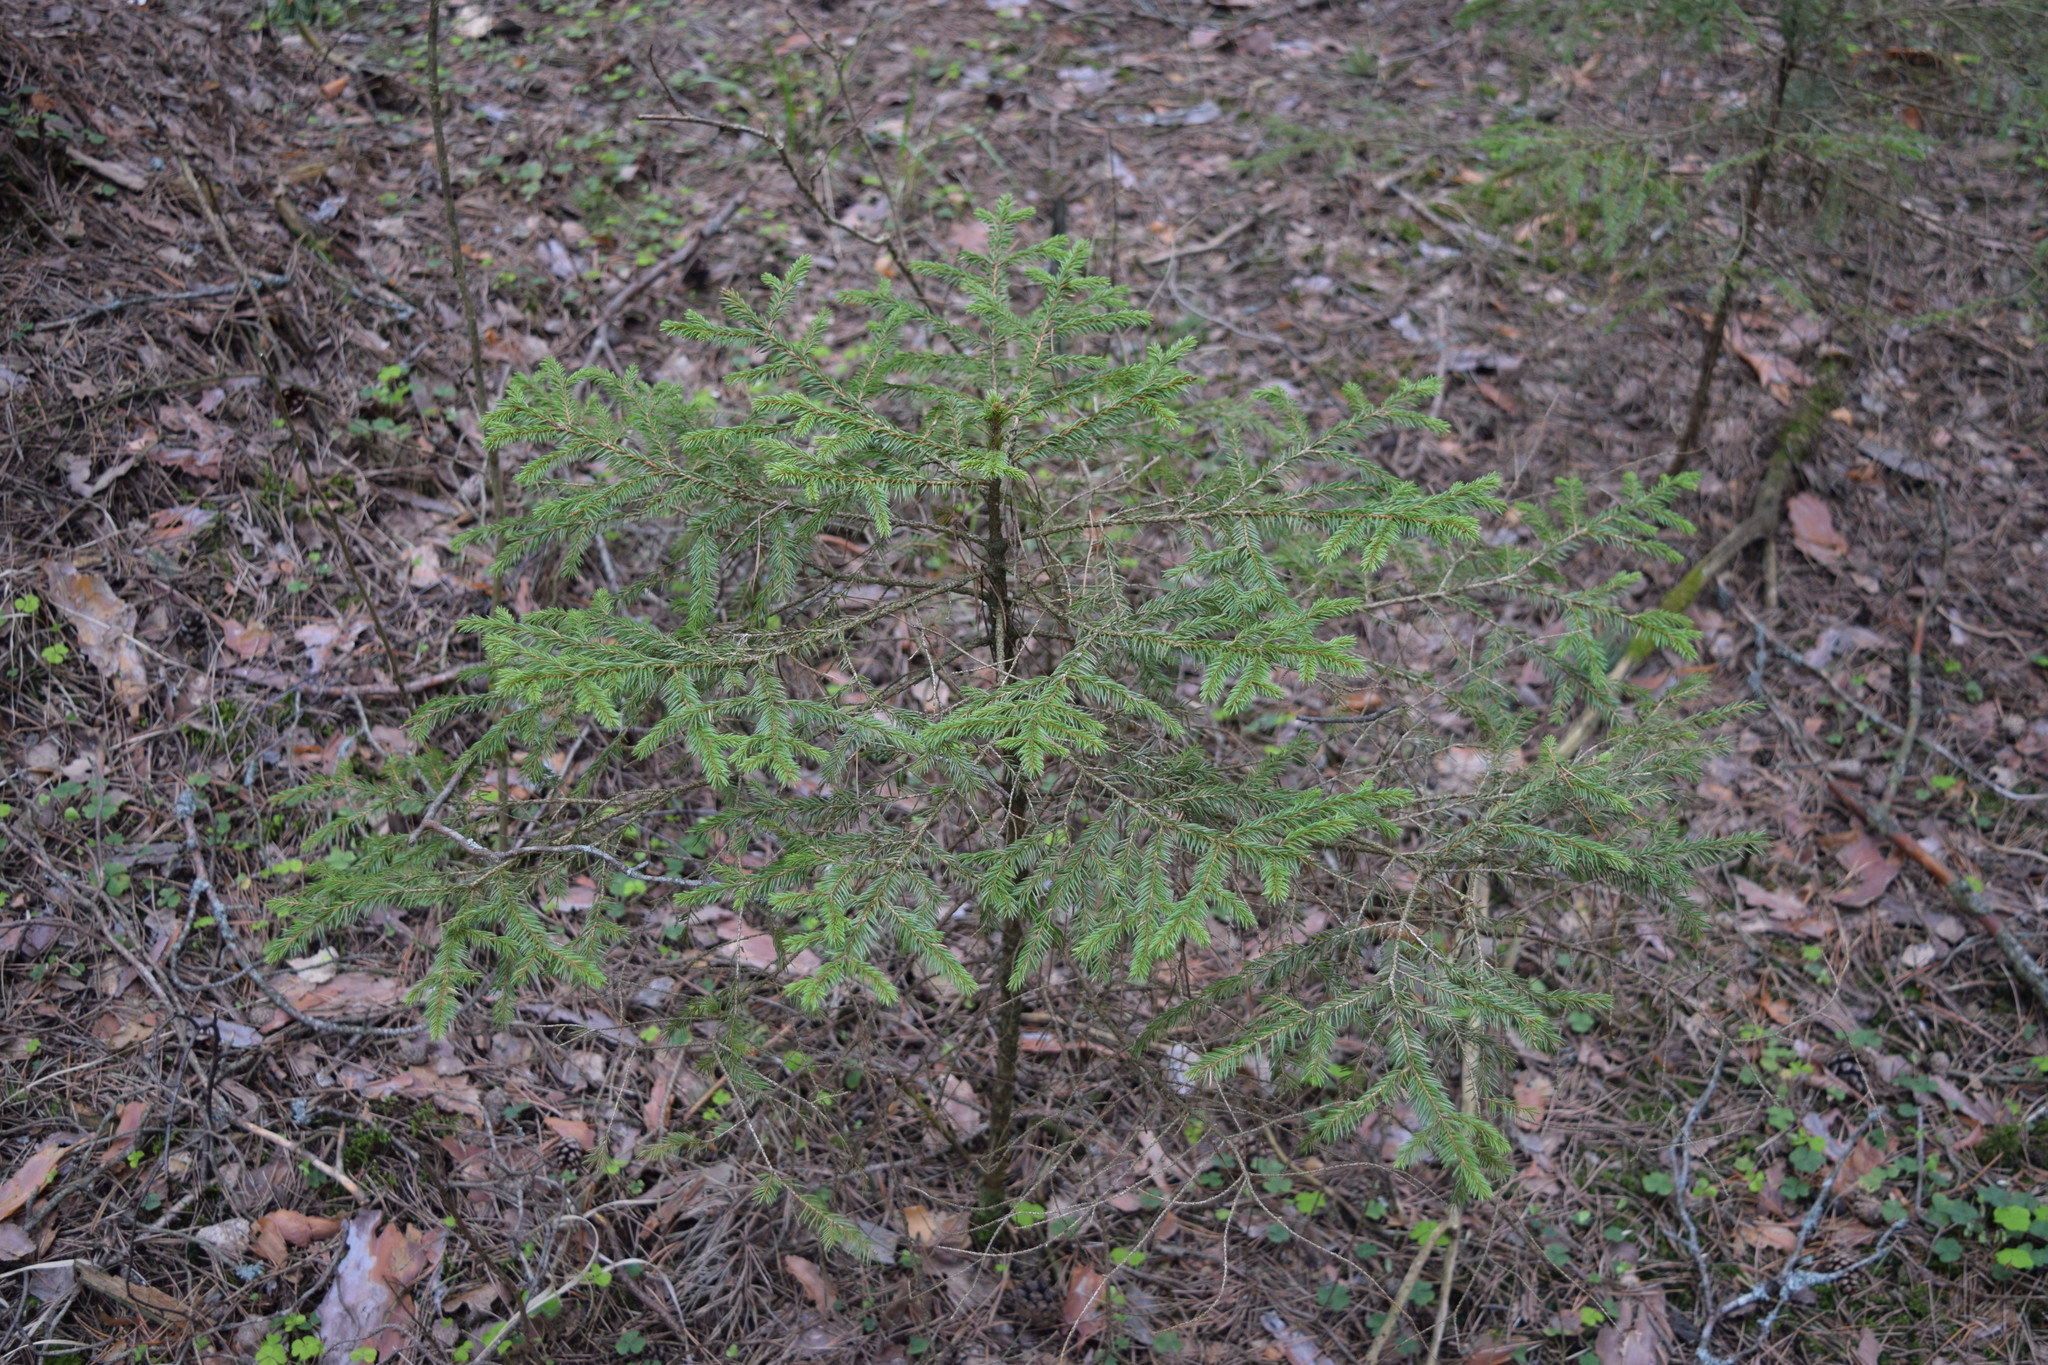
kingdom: Plantae
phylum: Tracheophyta
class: Pinopsida
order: Pinales
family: Pinaceae
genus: Picea
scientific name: Picea abies
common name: Norway spruce
